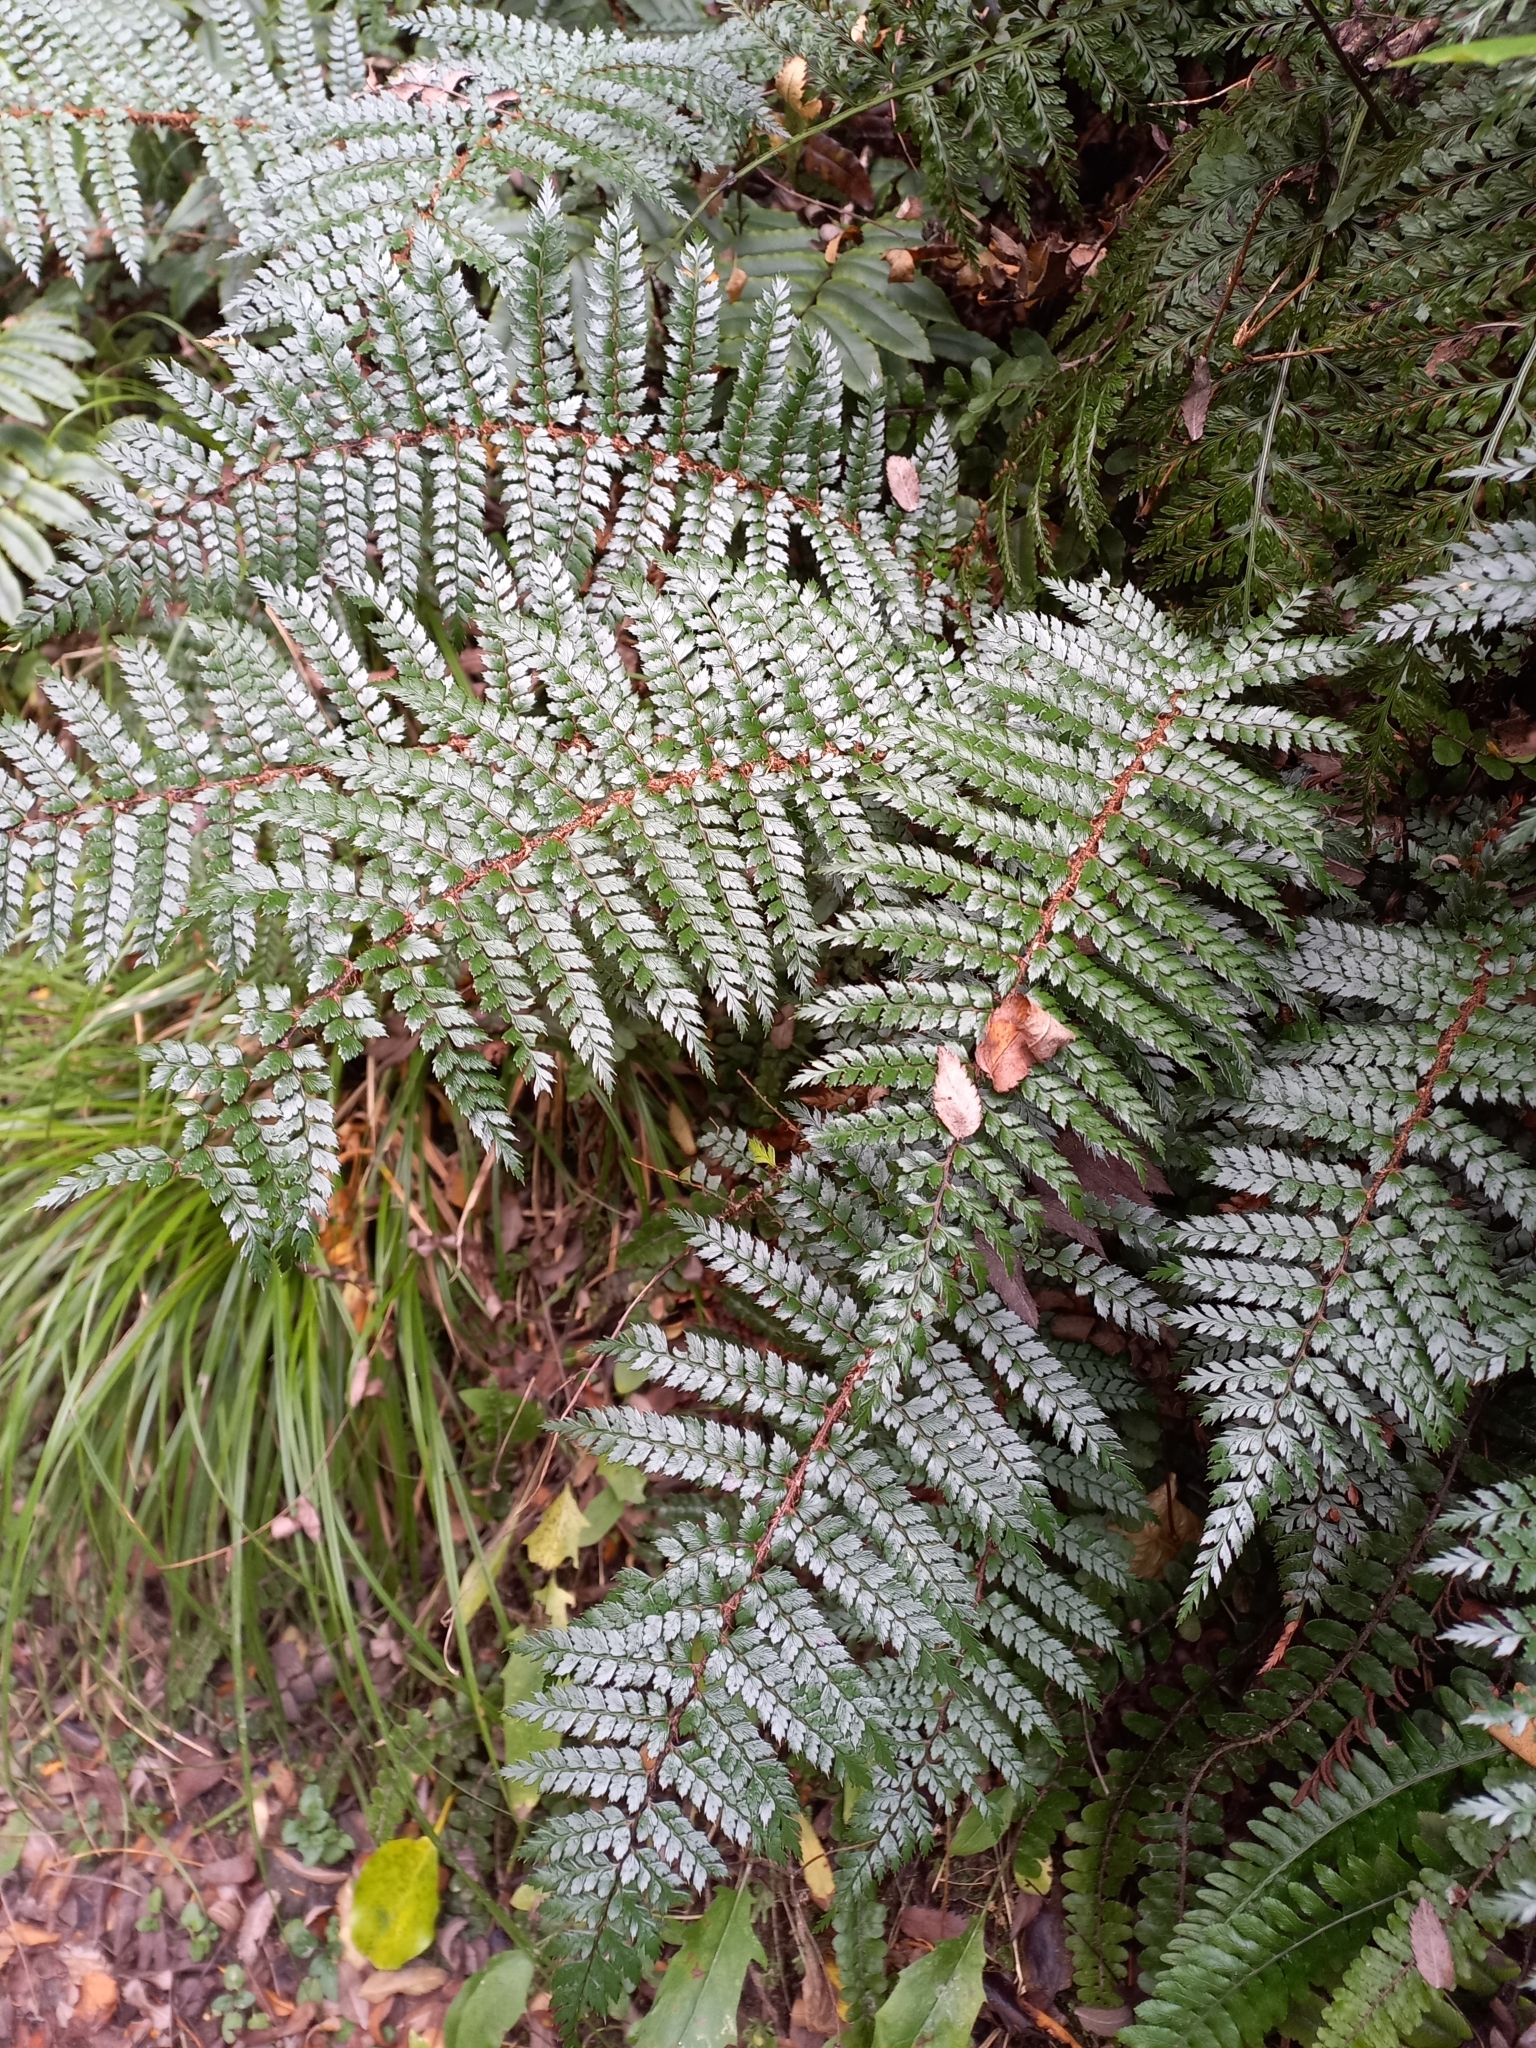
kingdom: Plantae
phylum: Tracheophyta
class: Polypodiopsida
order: Polypodiales
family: Dryopteridaceae
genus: Polystichum
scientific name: Polystichum vestitum
